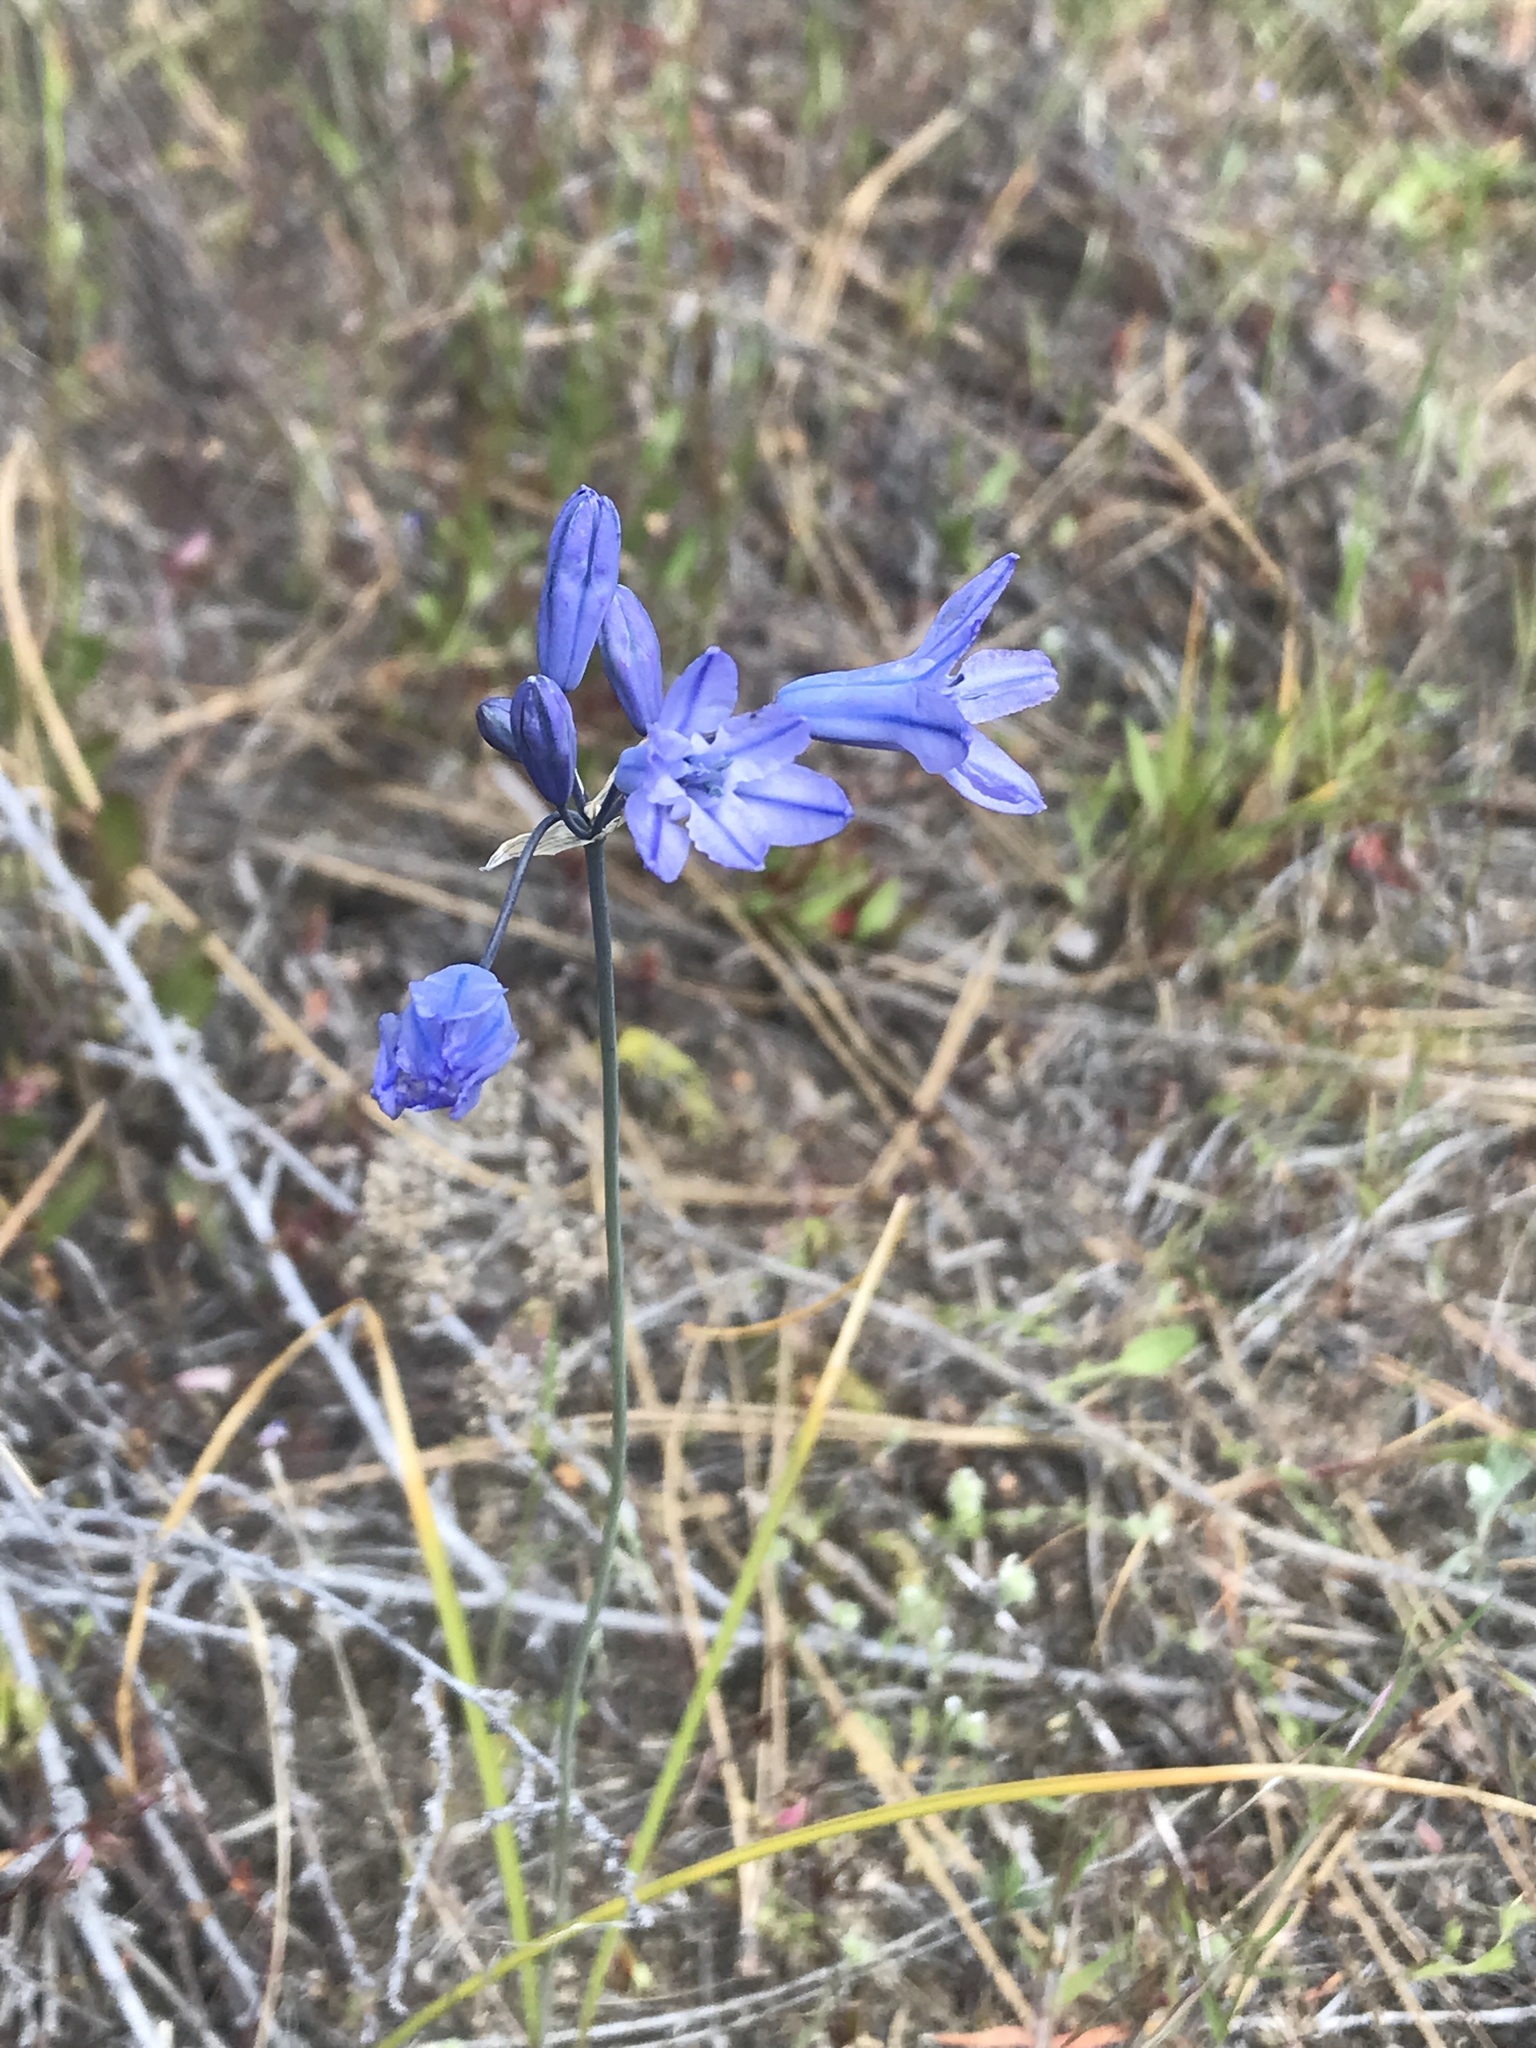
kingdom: Plantae
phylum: Tracheophyta
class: Liliopsida
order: Asparagales
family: Asparagaceae
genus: Triteleia
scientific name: Triteleia grandiflora
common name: Wild hyacinth
